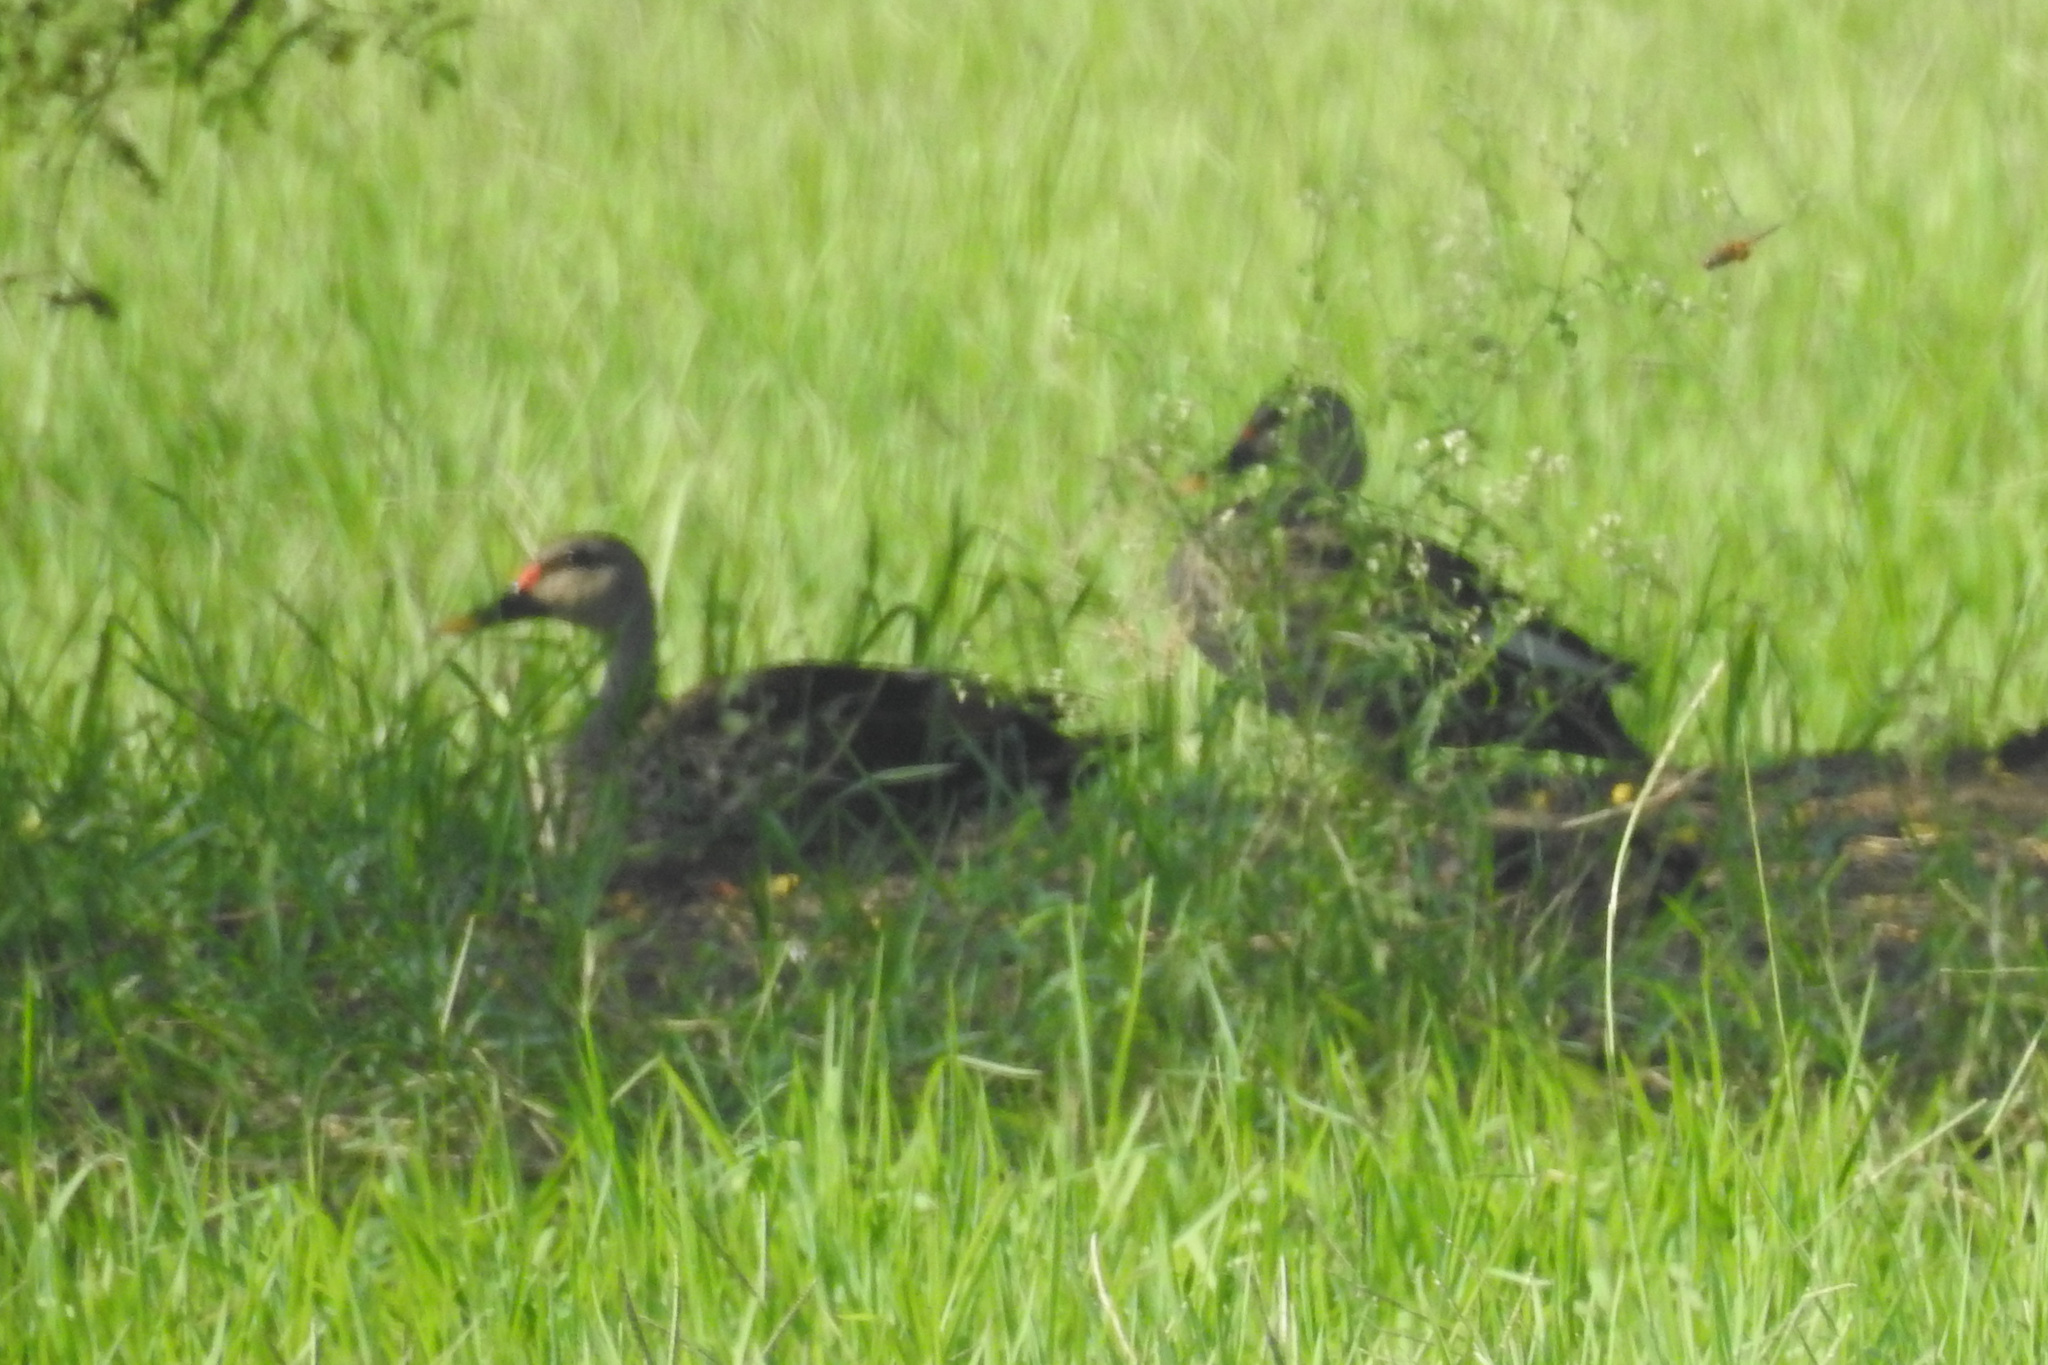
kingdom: Animalia
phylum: Chordata
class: Aves
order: Anseriformes
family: Anatidae
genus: Anas
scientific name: Anas poecilorhyncha
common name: Indian spot-billed duck
